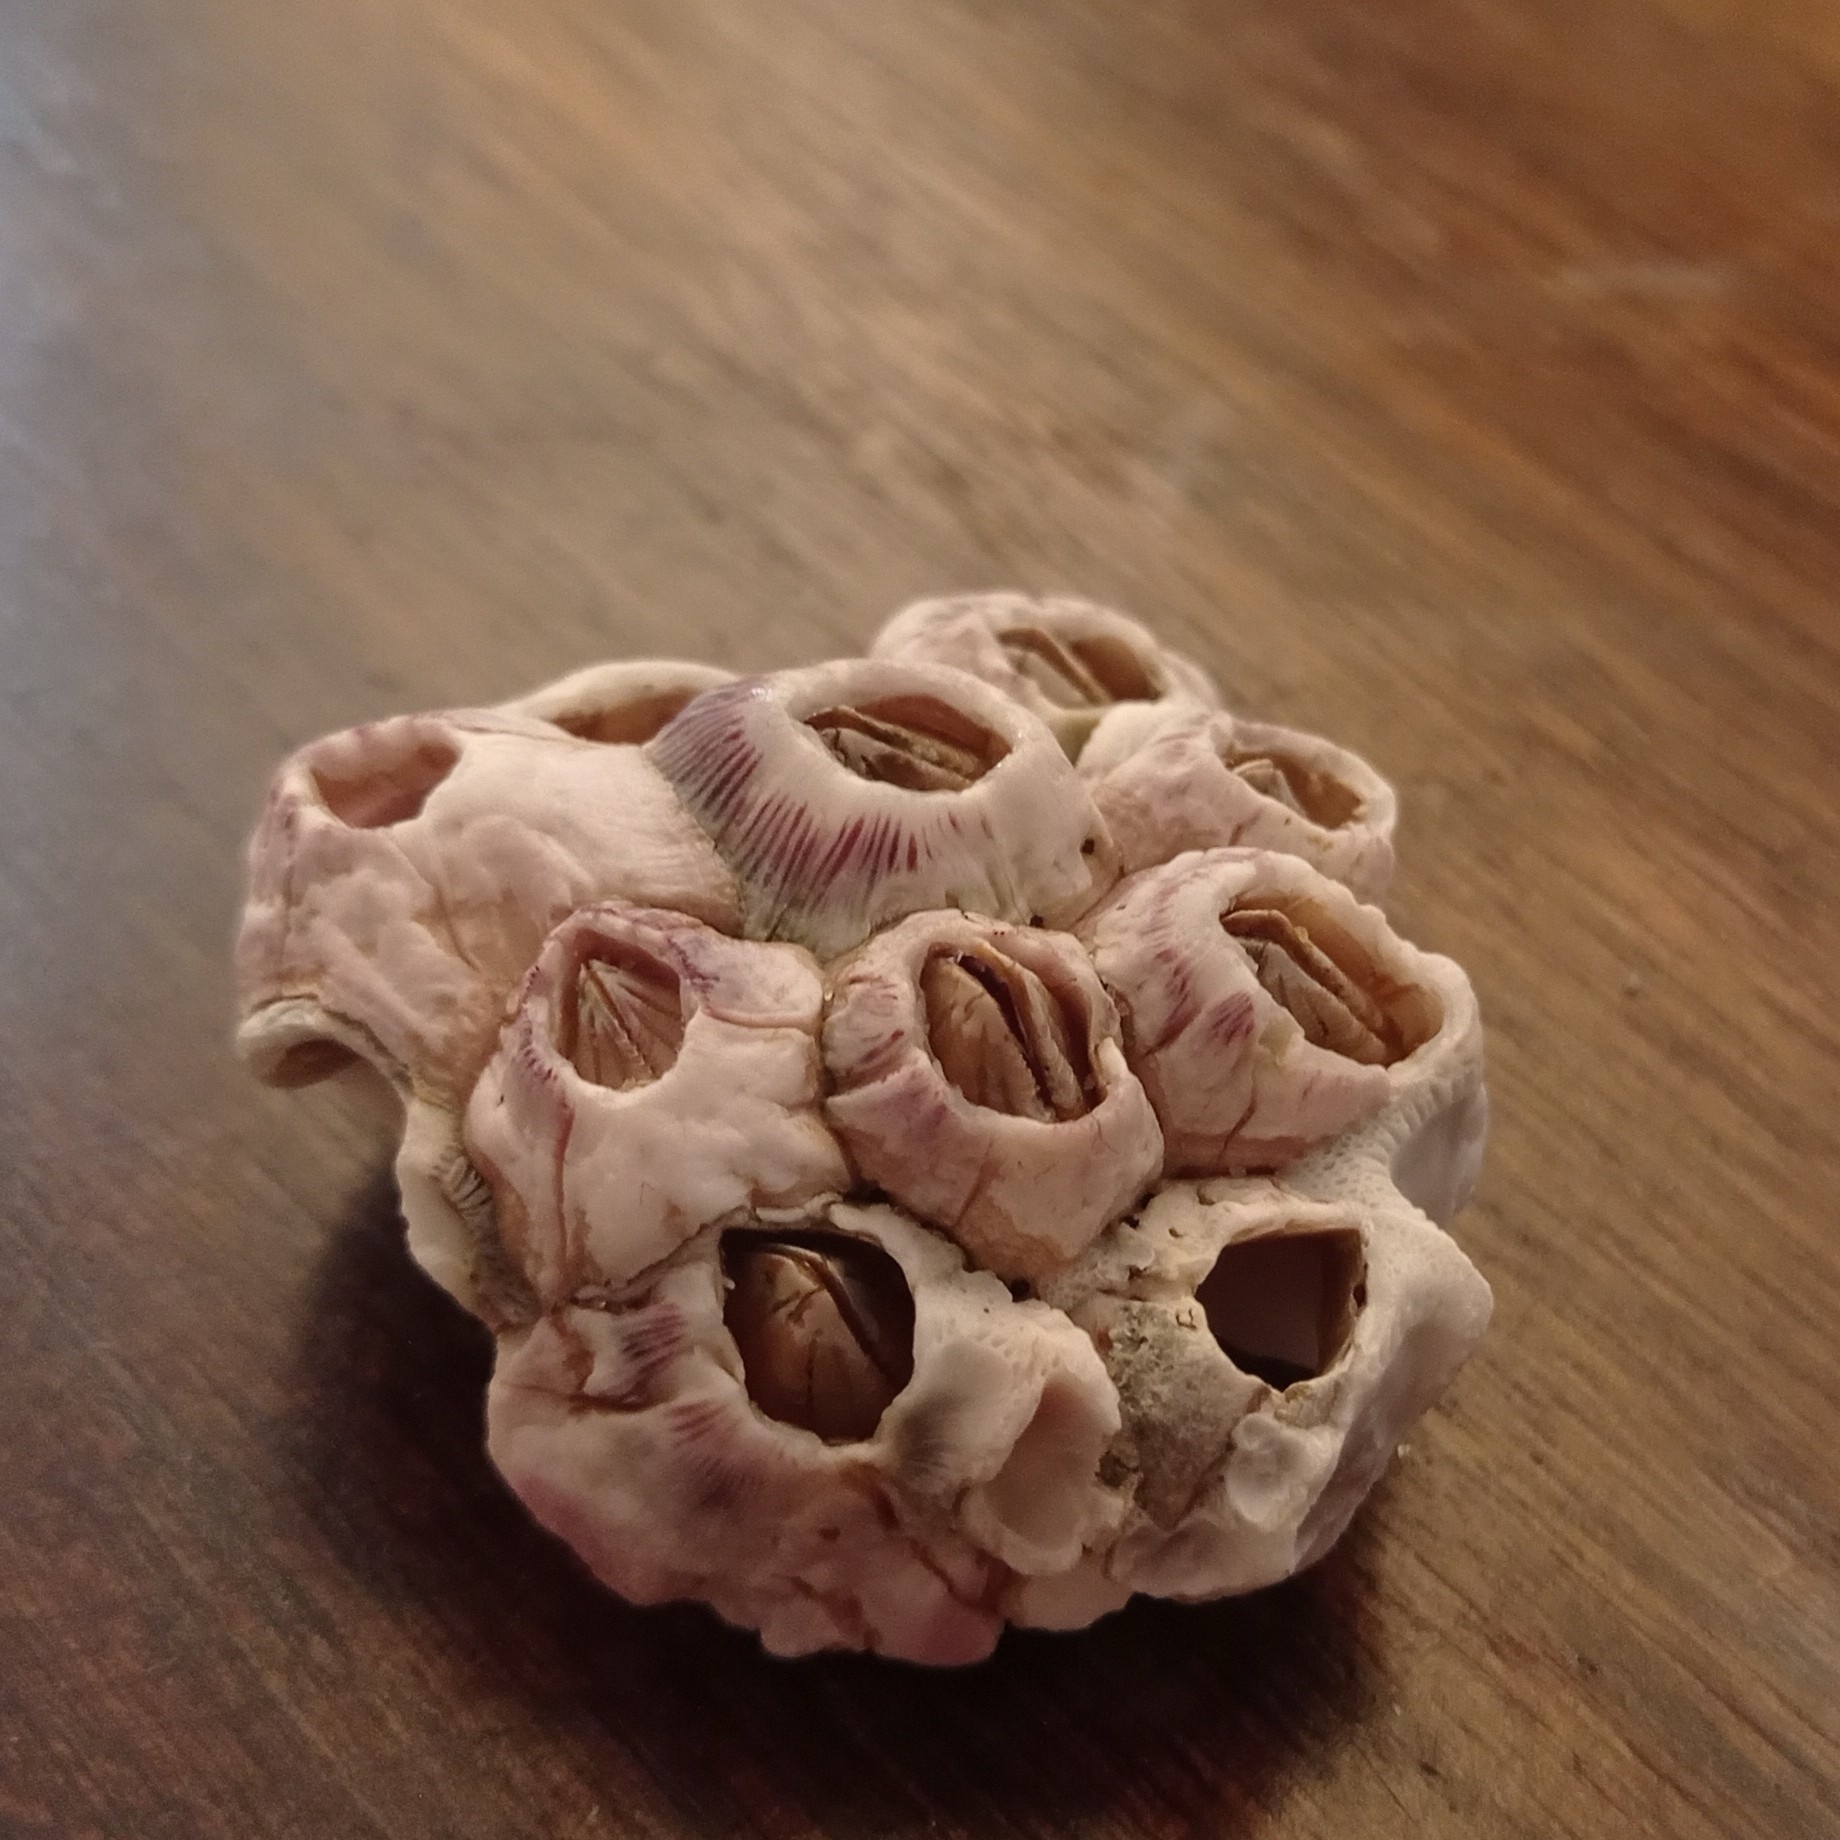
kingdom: Animalia
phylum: Arthropoda
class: Maxillopoda
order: Sessilia
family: Balanidae
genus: Balanus
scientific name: Balanus laevis
